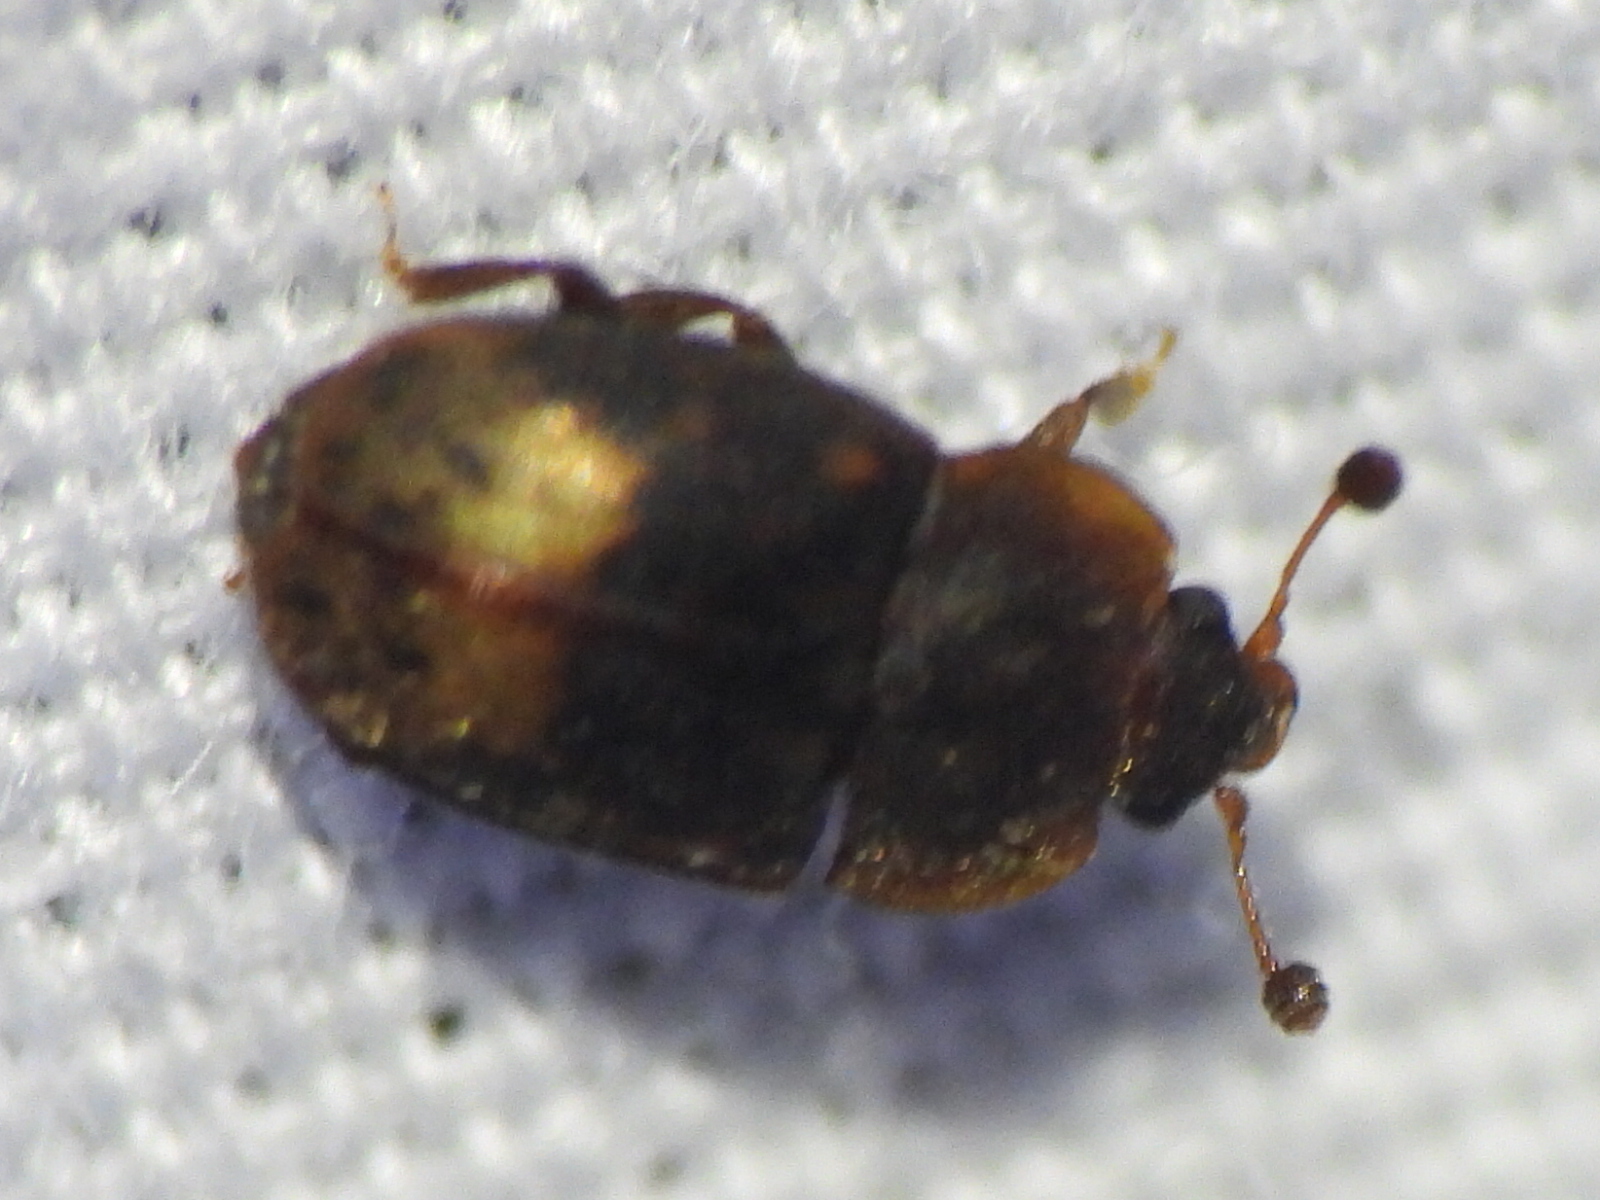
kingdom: Animalia
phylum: Arthropoda
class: Insecta
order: Coleoptera
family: Nitidulidae
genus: Omosita
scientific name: Omosita nearctica
